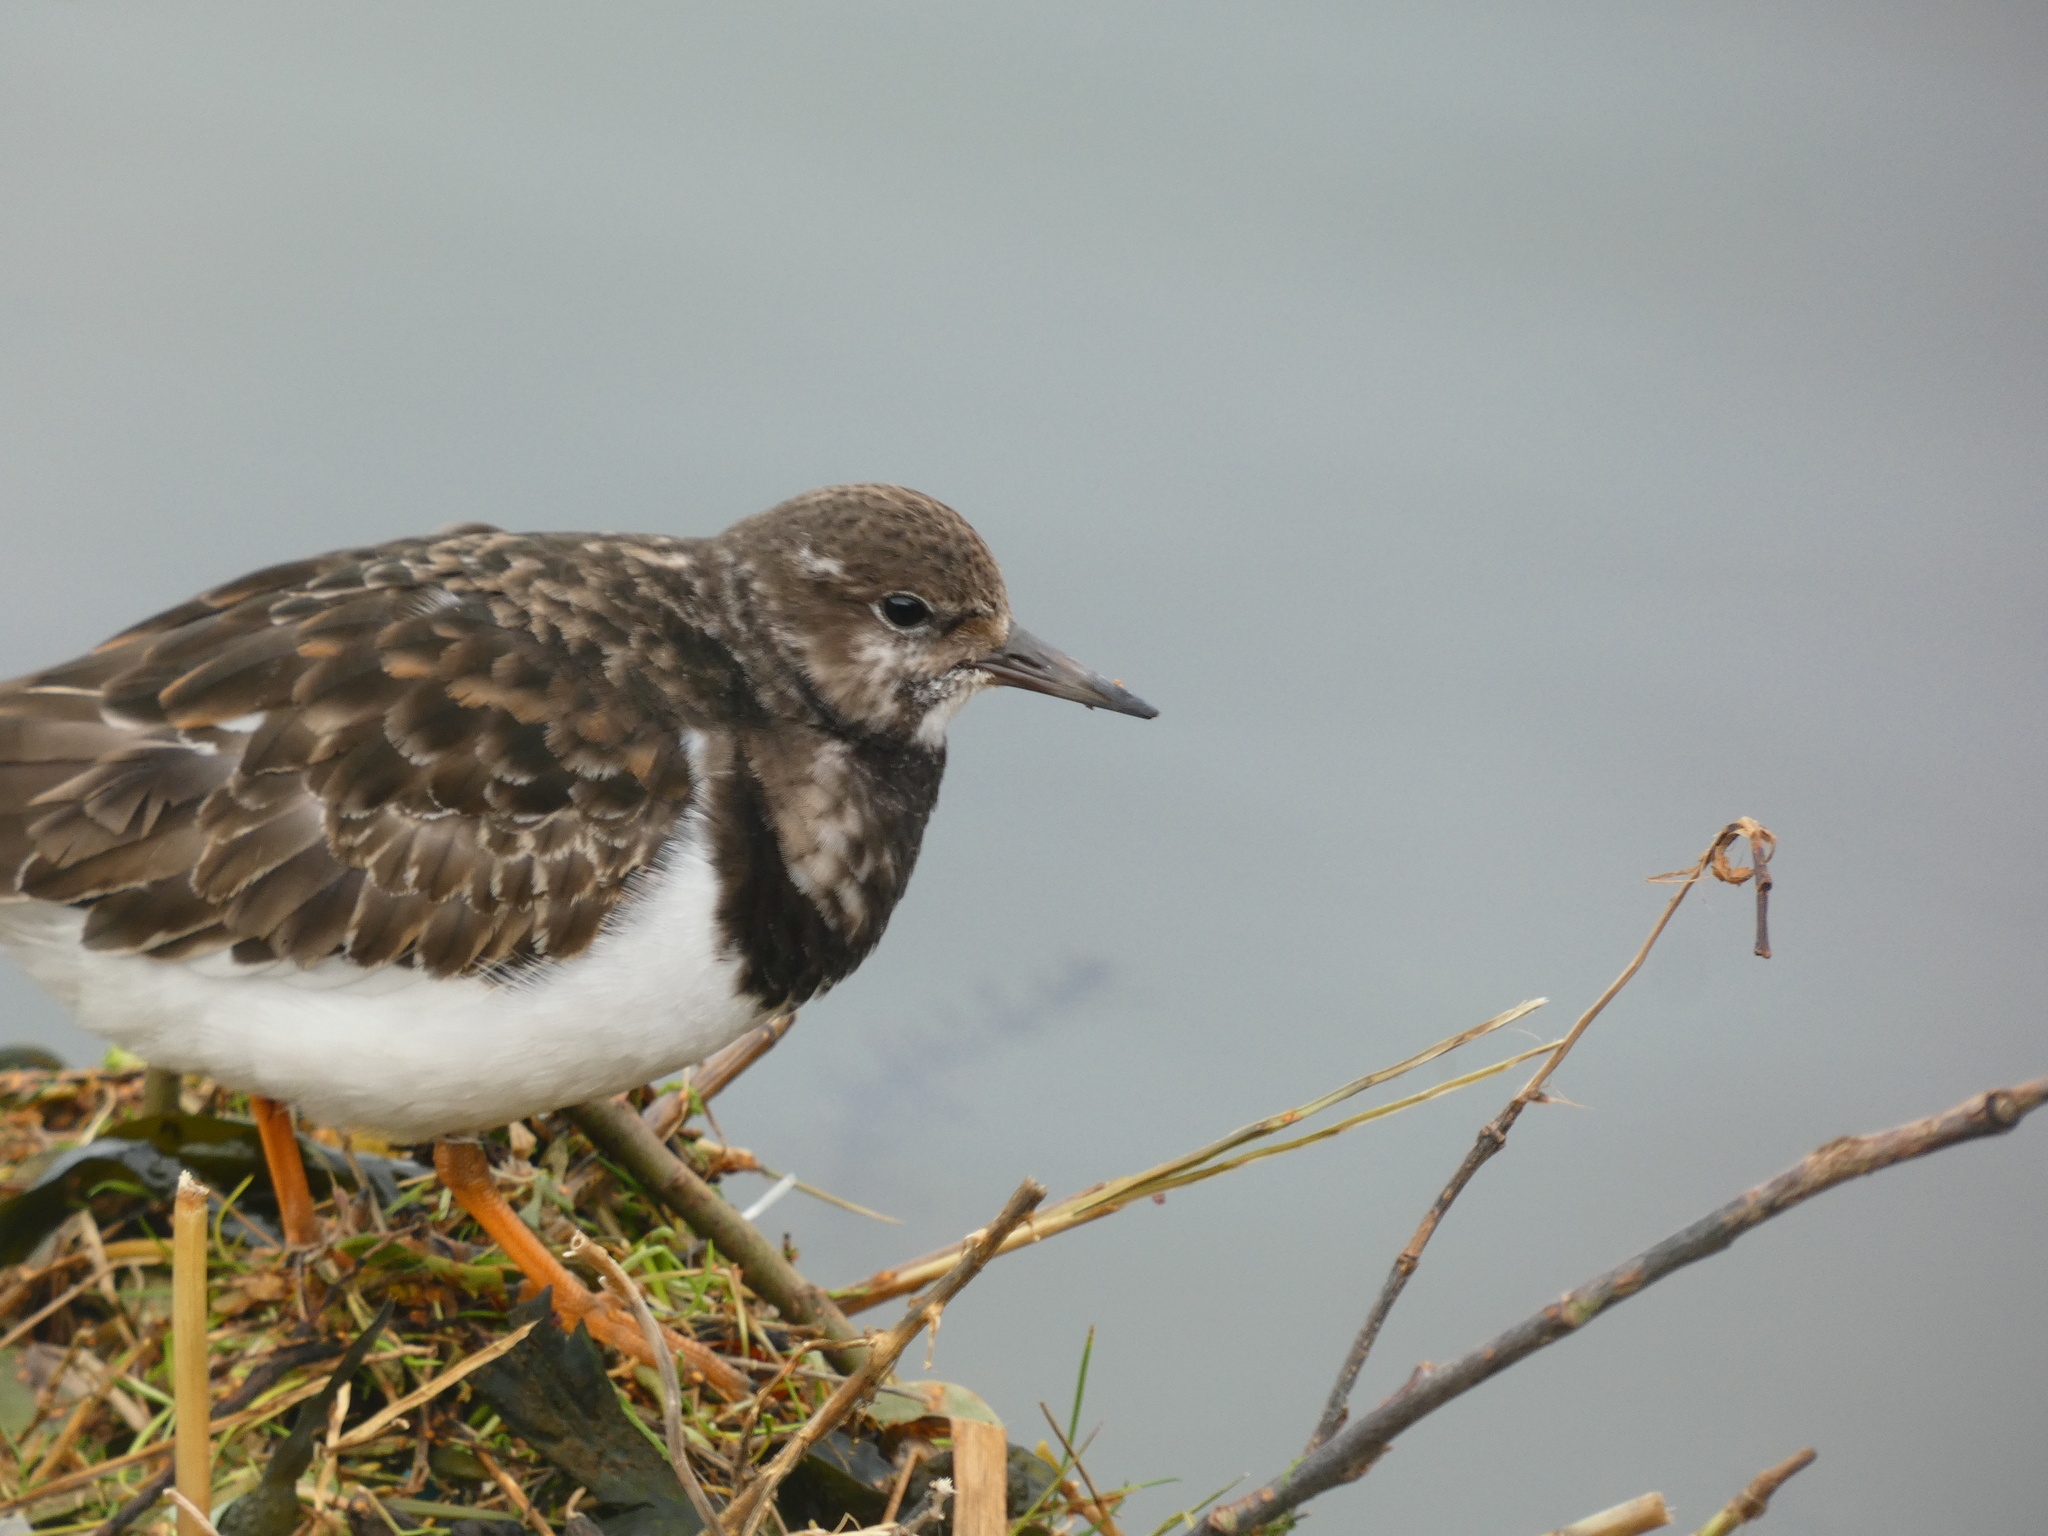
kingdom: Animalia
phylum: Chordata
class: Aves
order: Charadriiformes
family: Scolopacidae
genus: Arenaria
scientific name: Arenaria interpres
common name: Ruddy turnstone
